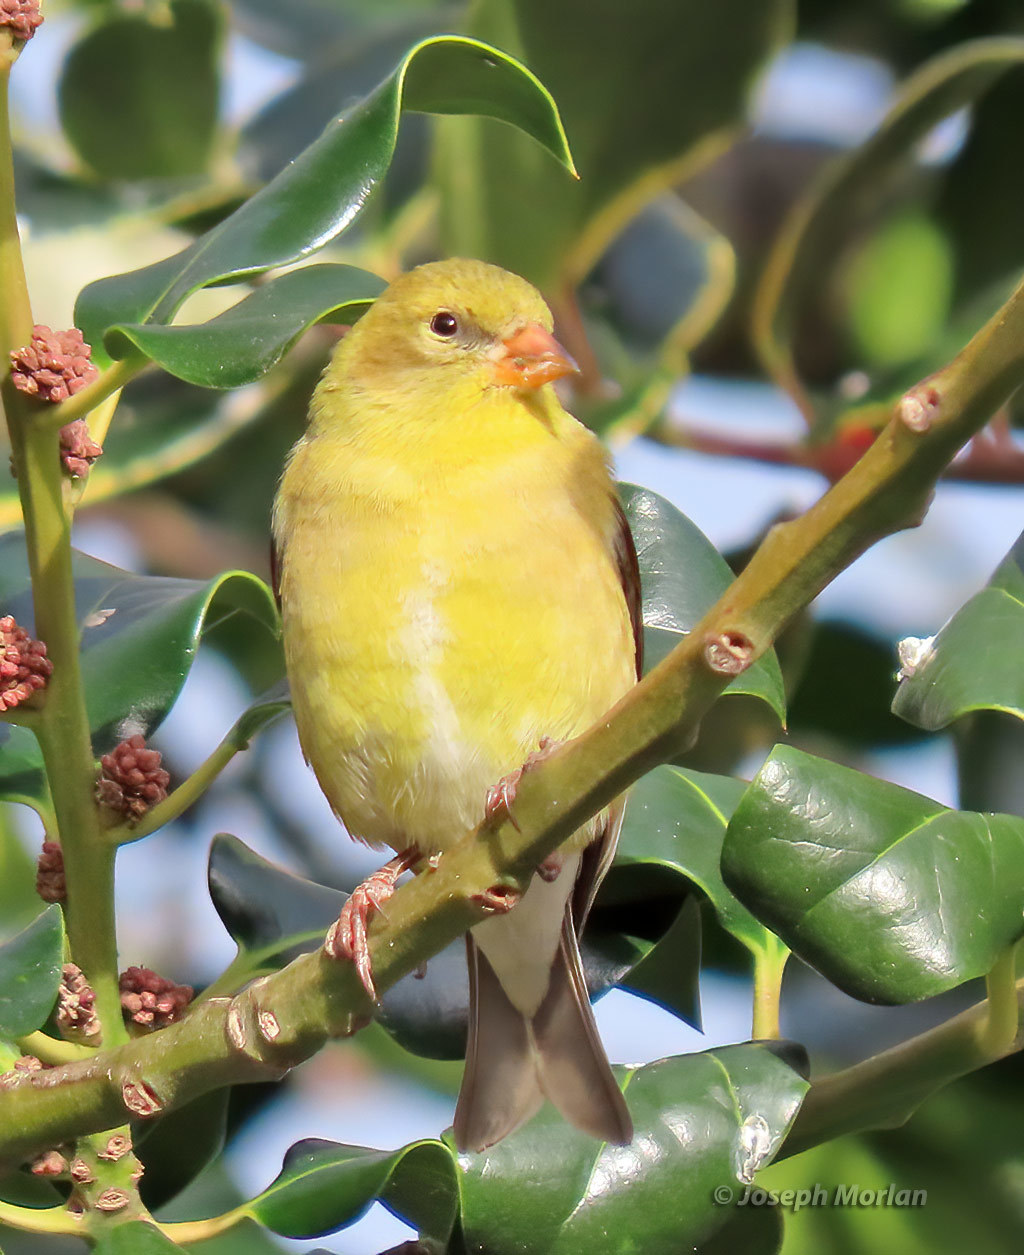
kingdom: Animalia
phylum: Chordata
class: Aves
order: Passeriformes
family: Fringillidae
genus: Spinus
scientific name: Spinus tristis
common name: American goldfinch
